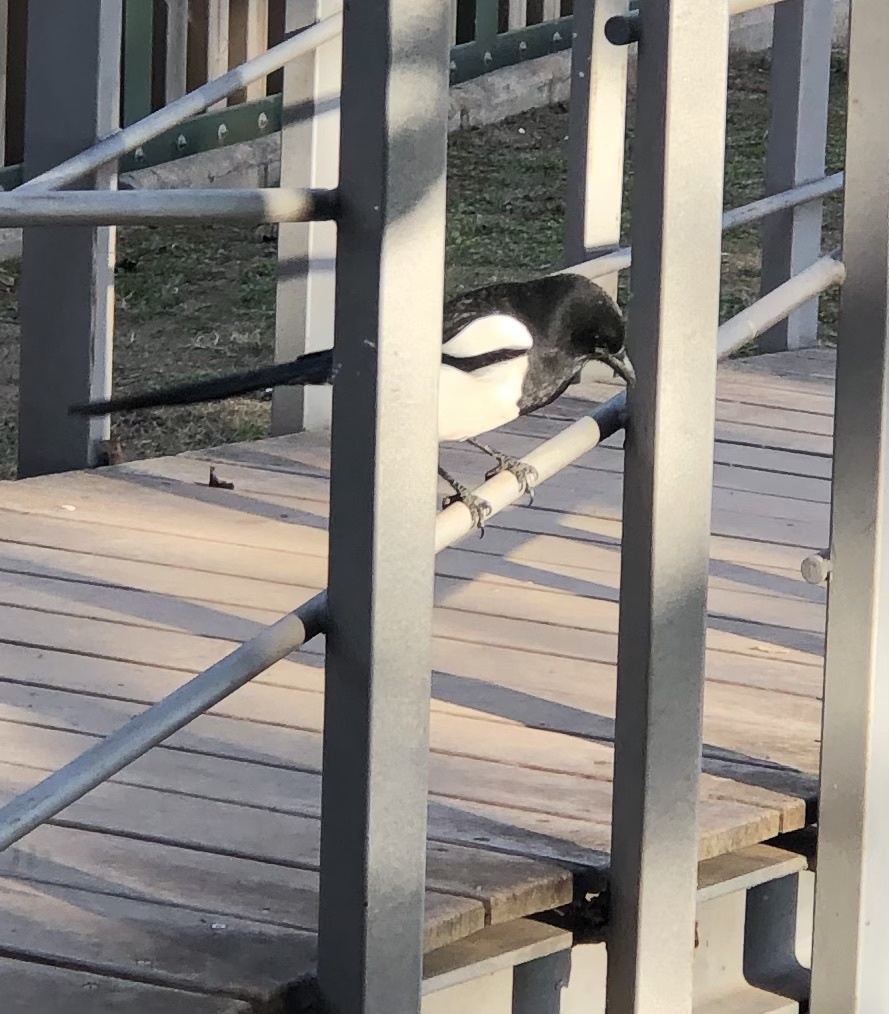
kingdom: Animalia
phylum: Chordata
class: Aves
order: Passeriformes
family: Corvidae
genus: Pica
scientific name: Pica pica
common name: Eurasian magpie
